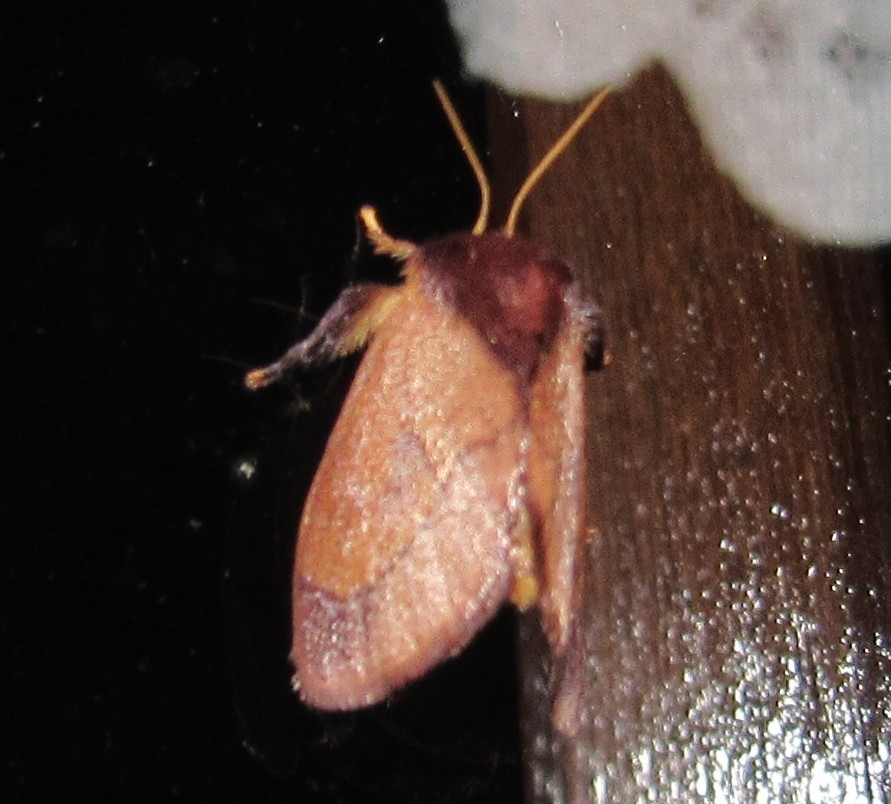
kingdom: Animalia
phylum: Arthropoda
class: Insecta
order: Lepidoptera
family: Limacodidae
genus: Talima
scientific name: Talima postica
